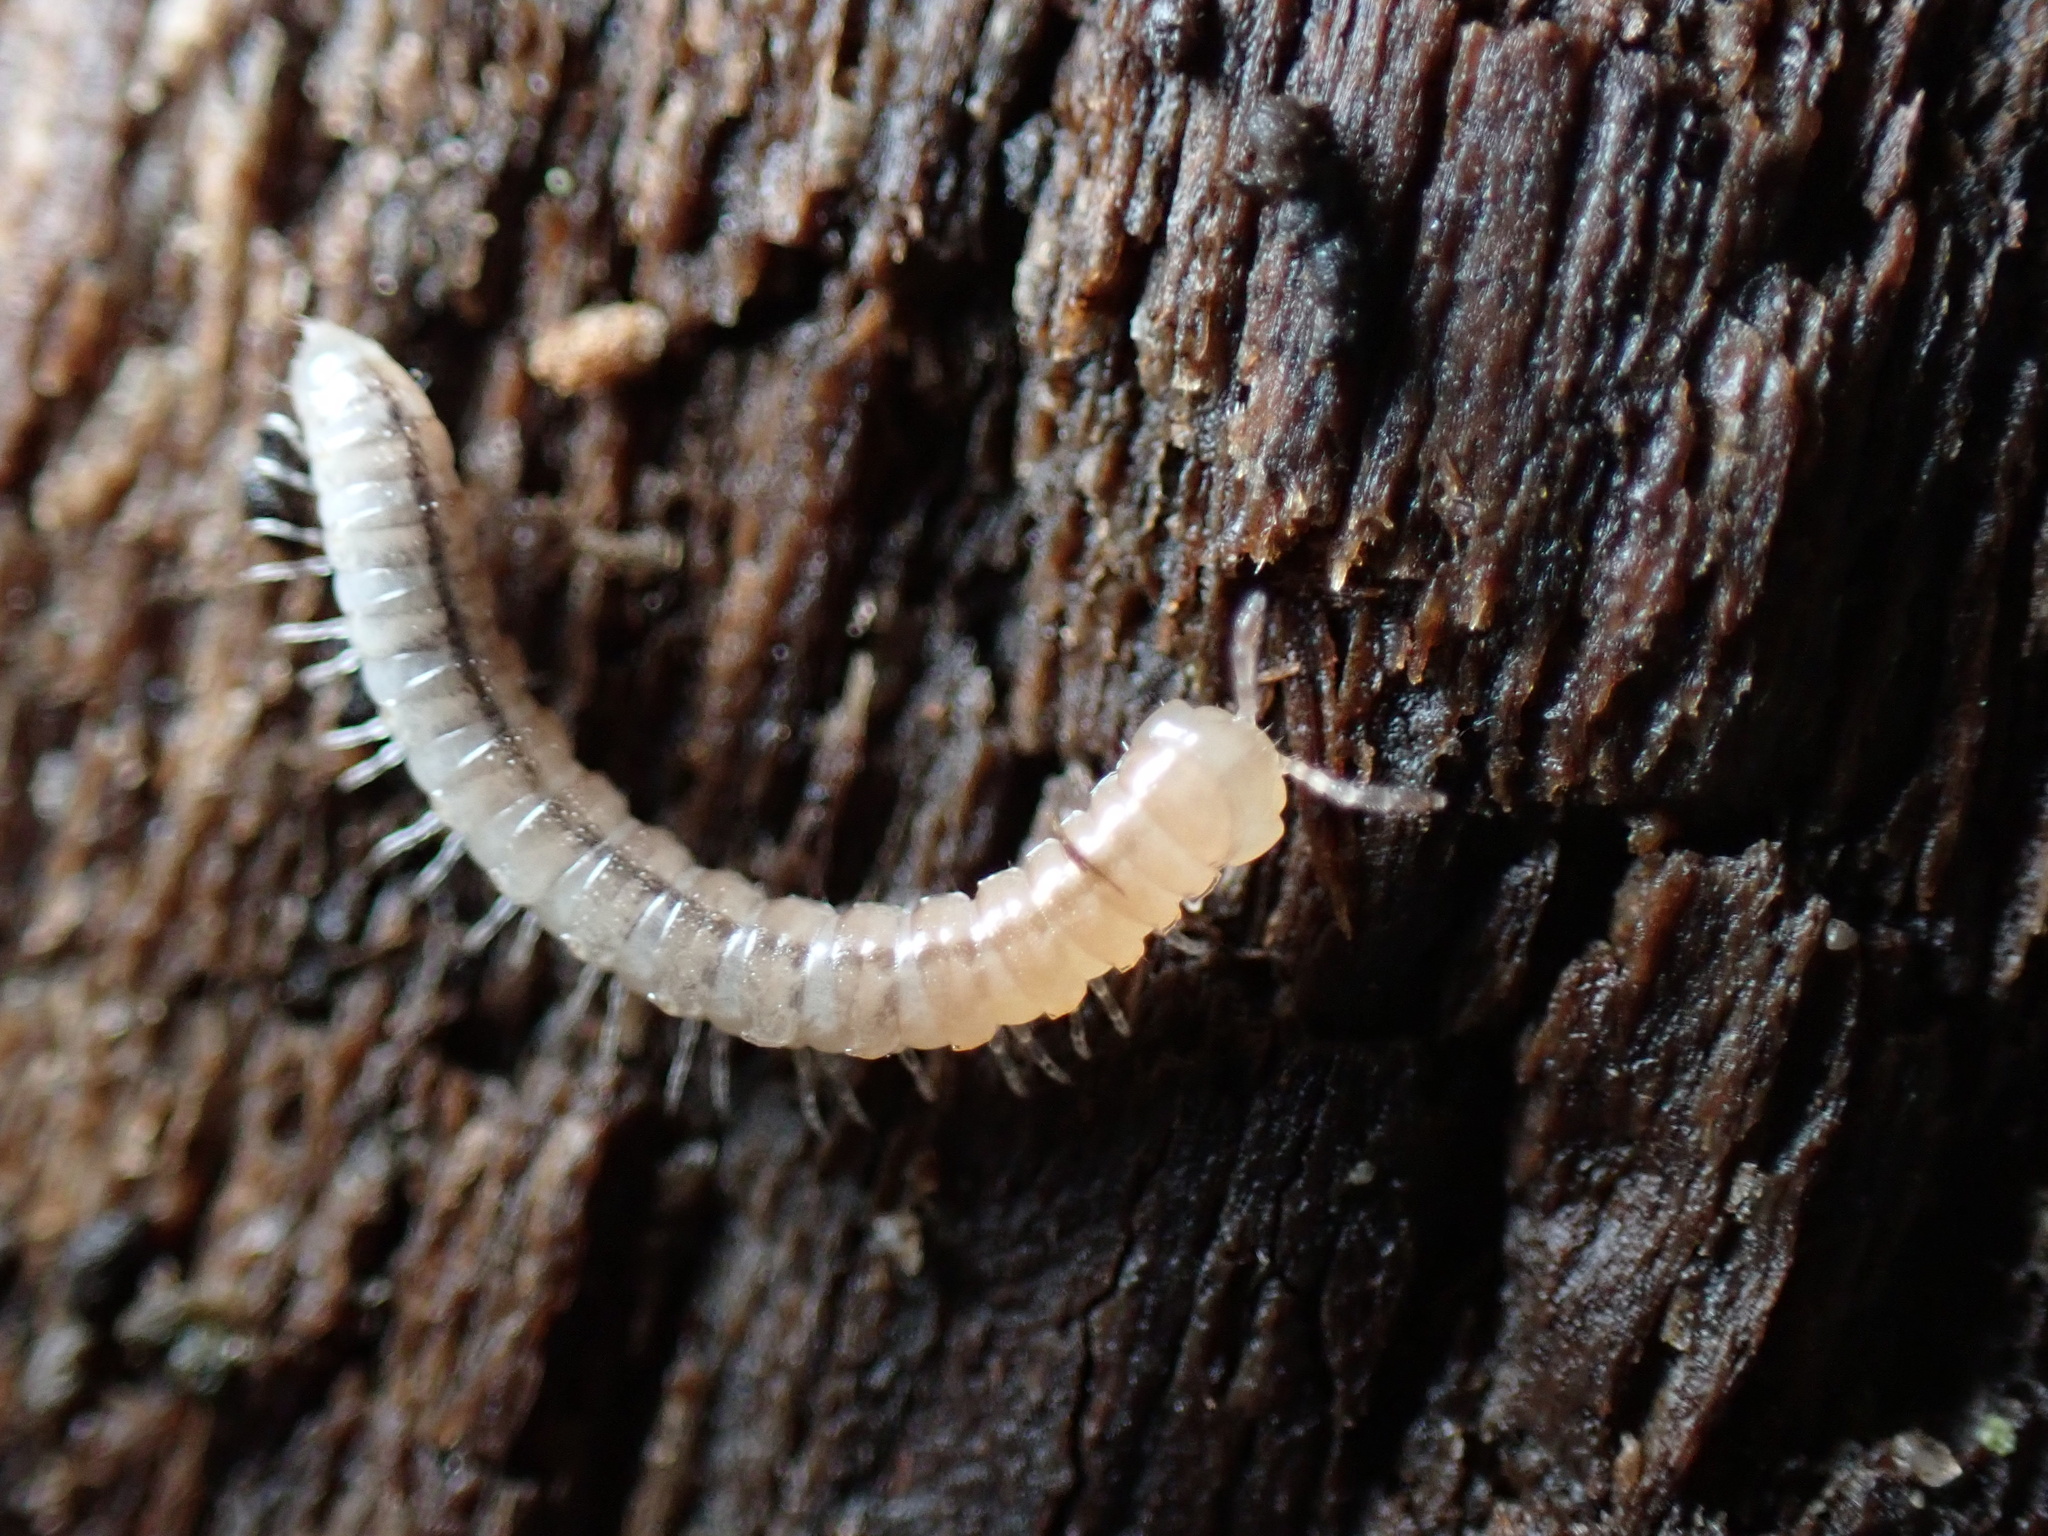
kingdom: Animalia
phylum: Arthropoda
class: Diplopoda
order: Polydesmida
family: Paradoxosomatidae
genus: Oxidus
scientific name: Oxidus gracilis
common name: Greenhouse millipede
